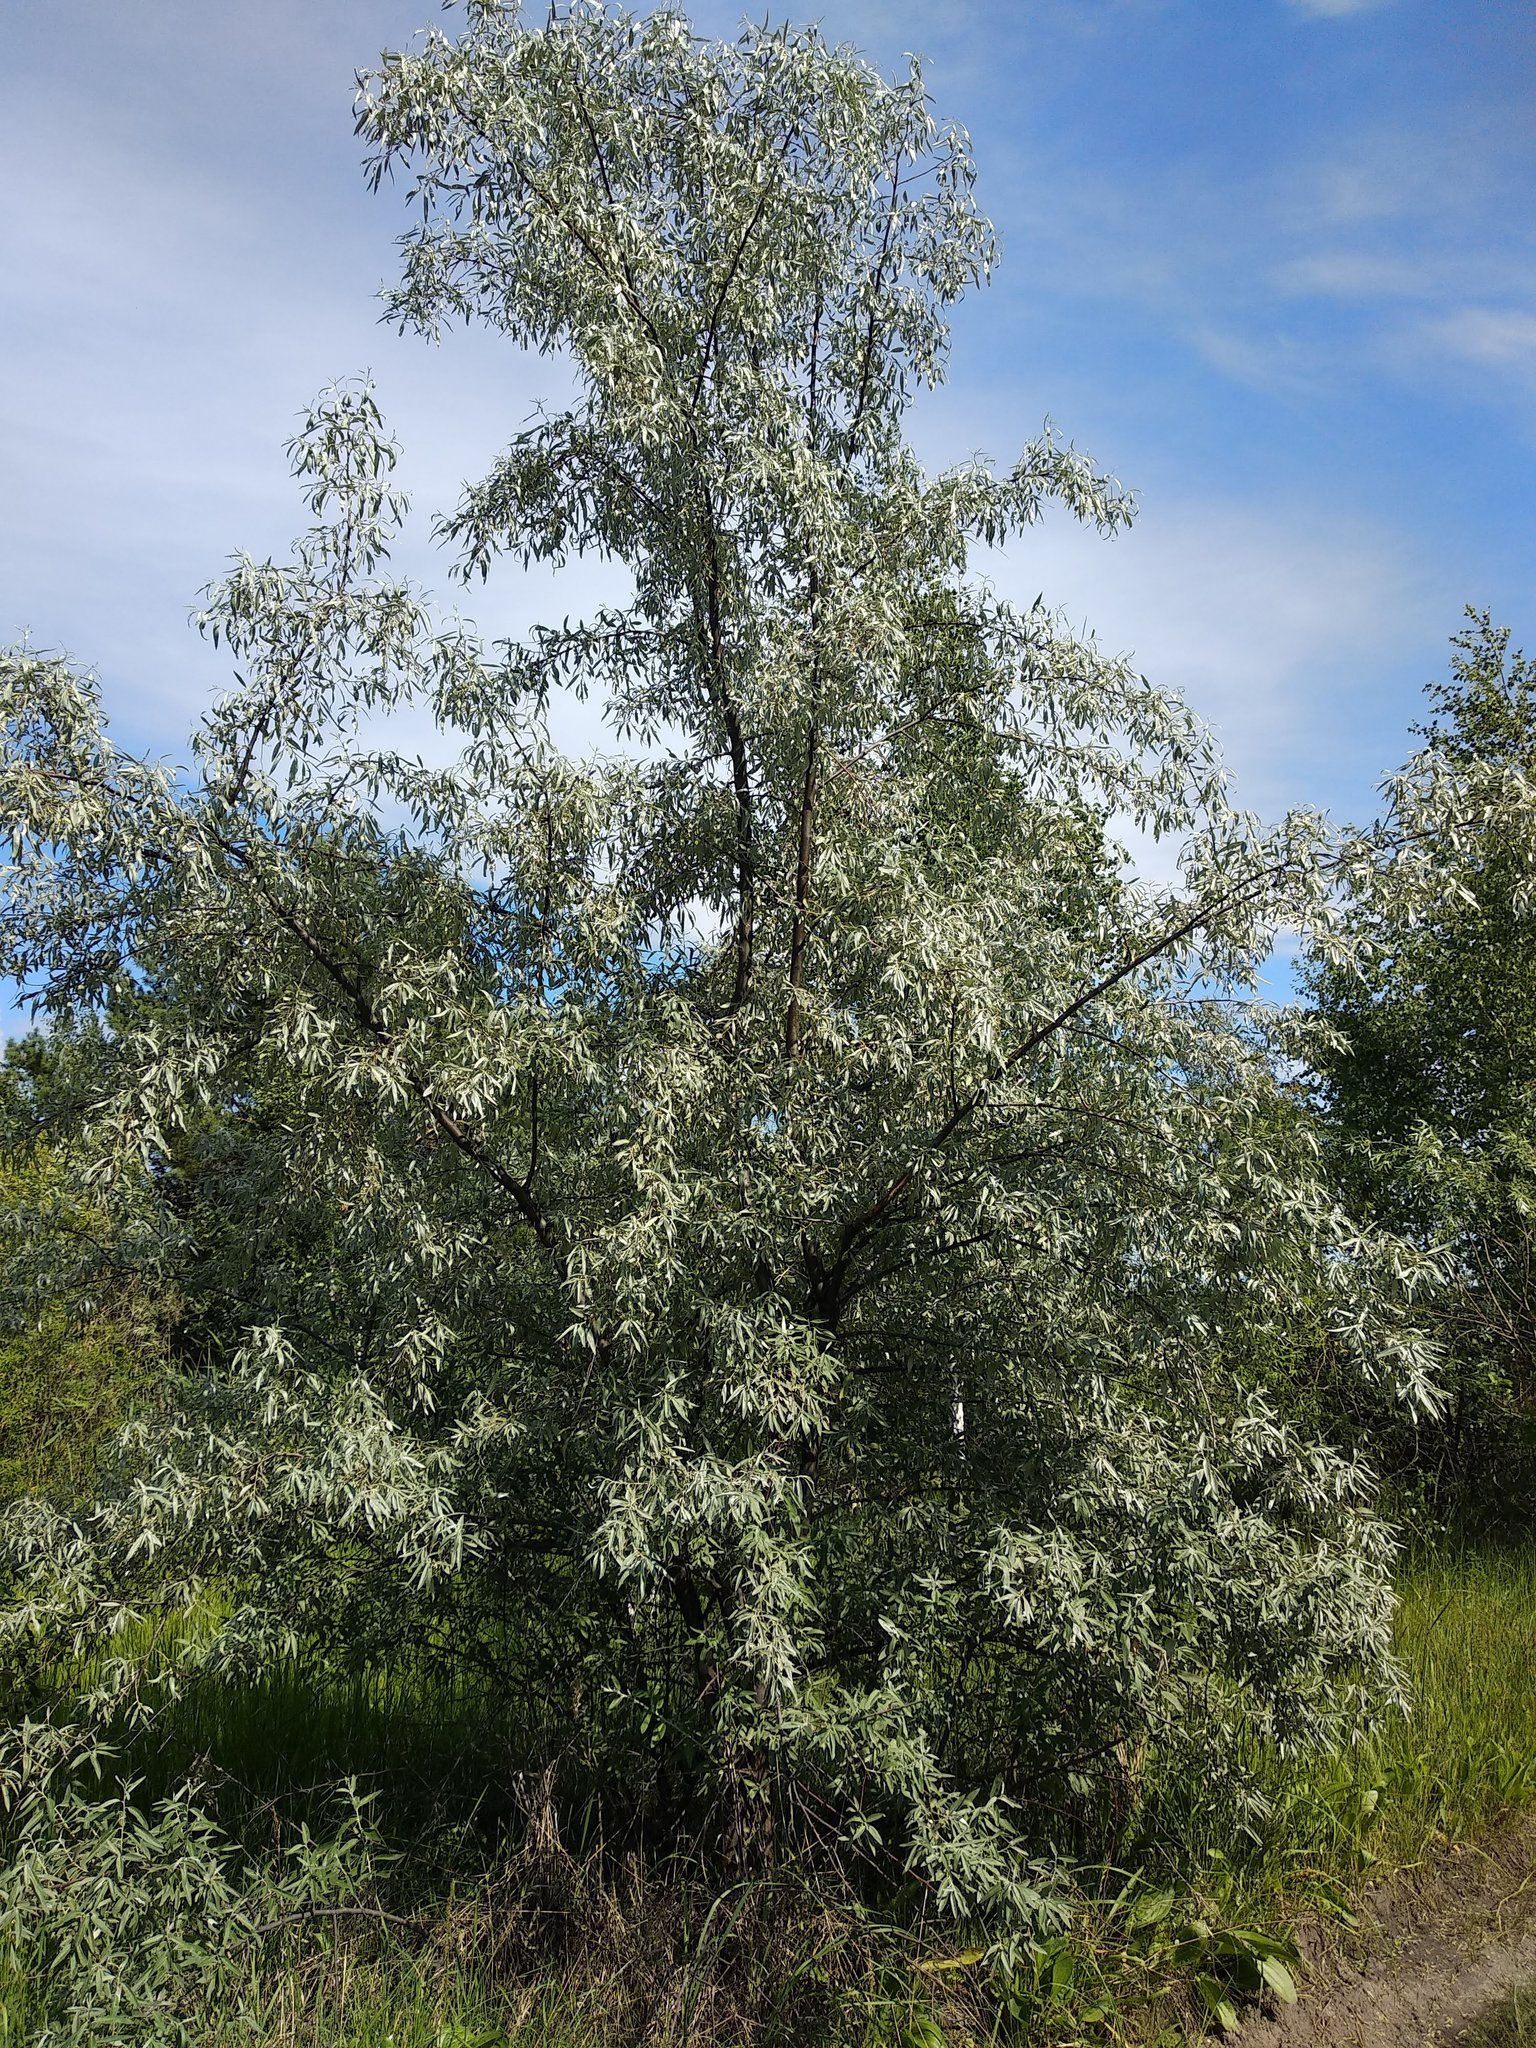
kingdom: Plantae
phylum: Tracheophyta
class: Magnoliopsida
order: Rosales
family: Elaeagnaceae
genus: Elaeagnus
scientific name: Elaeagnus angustifolia
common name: Russian olive
